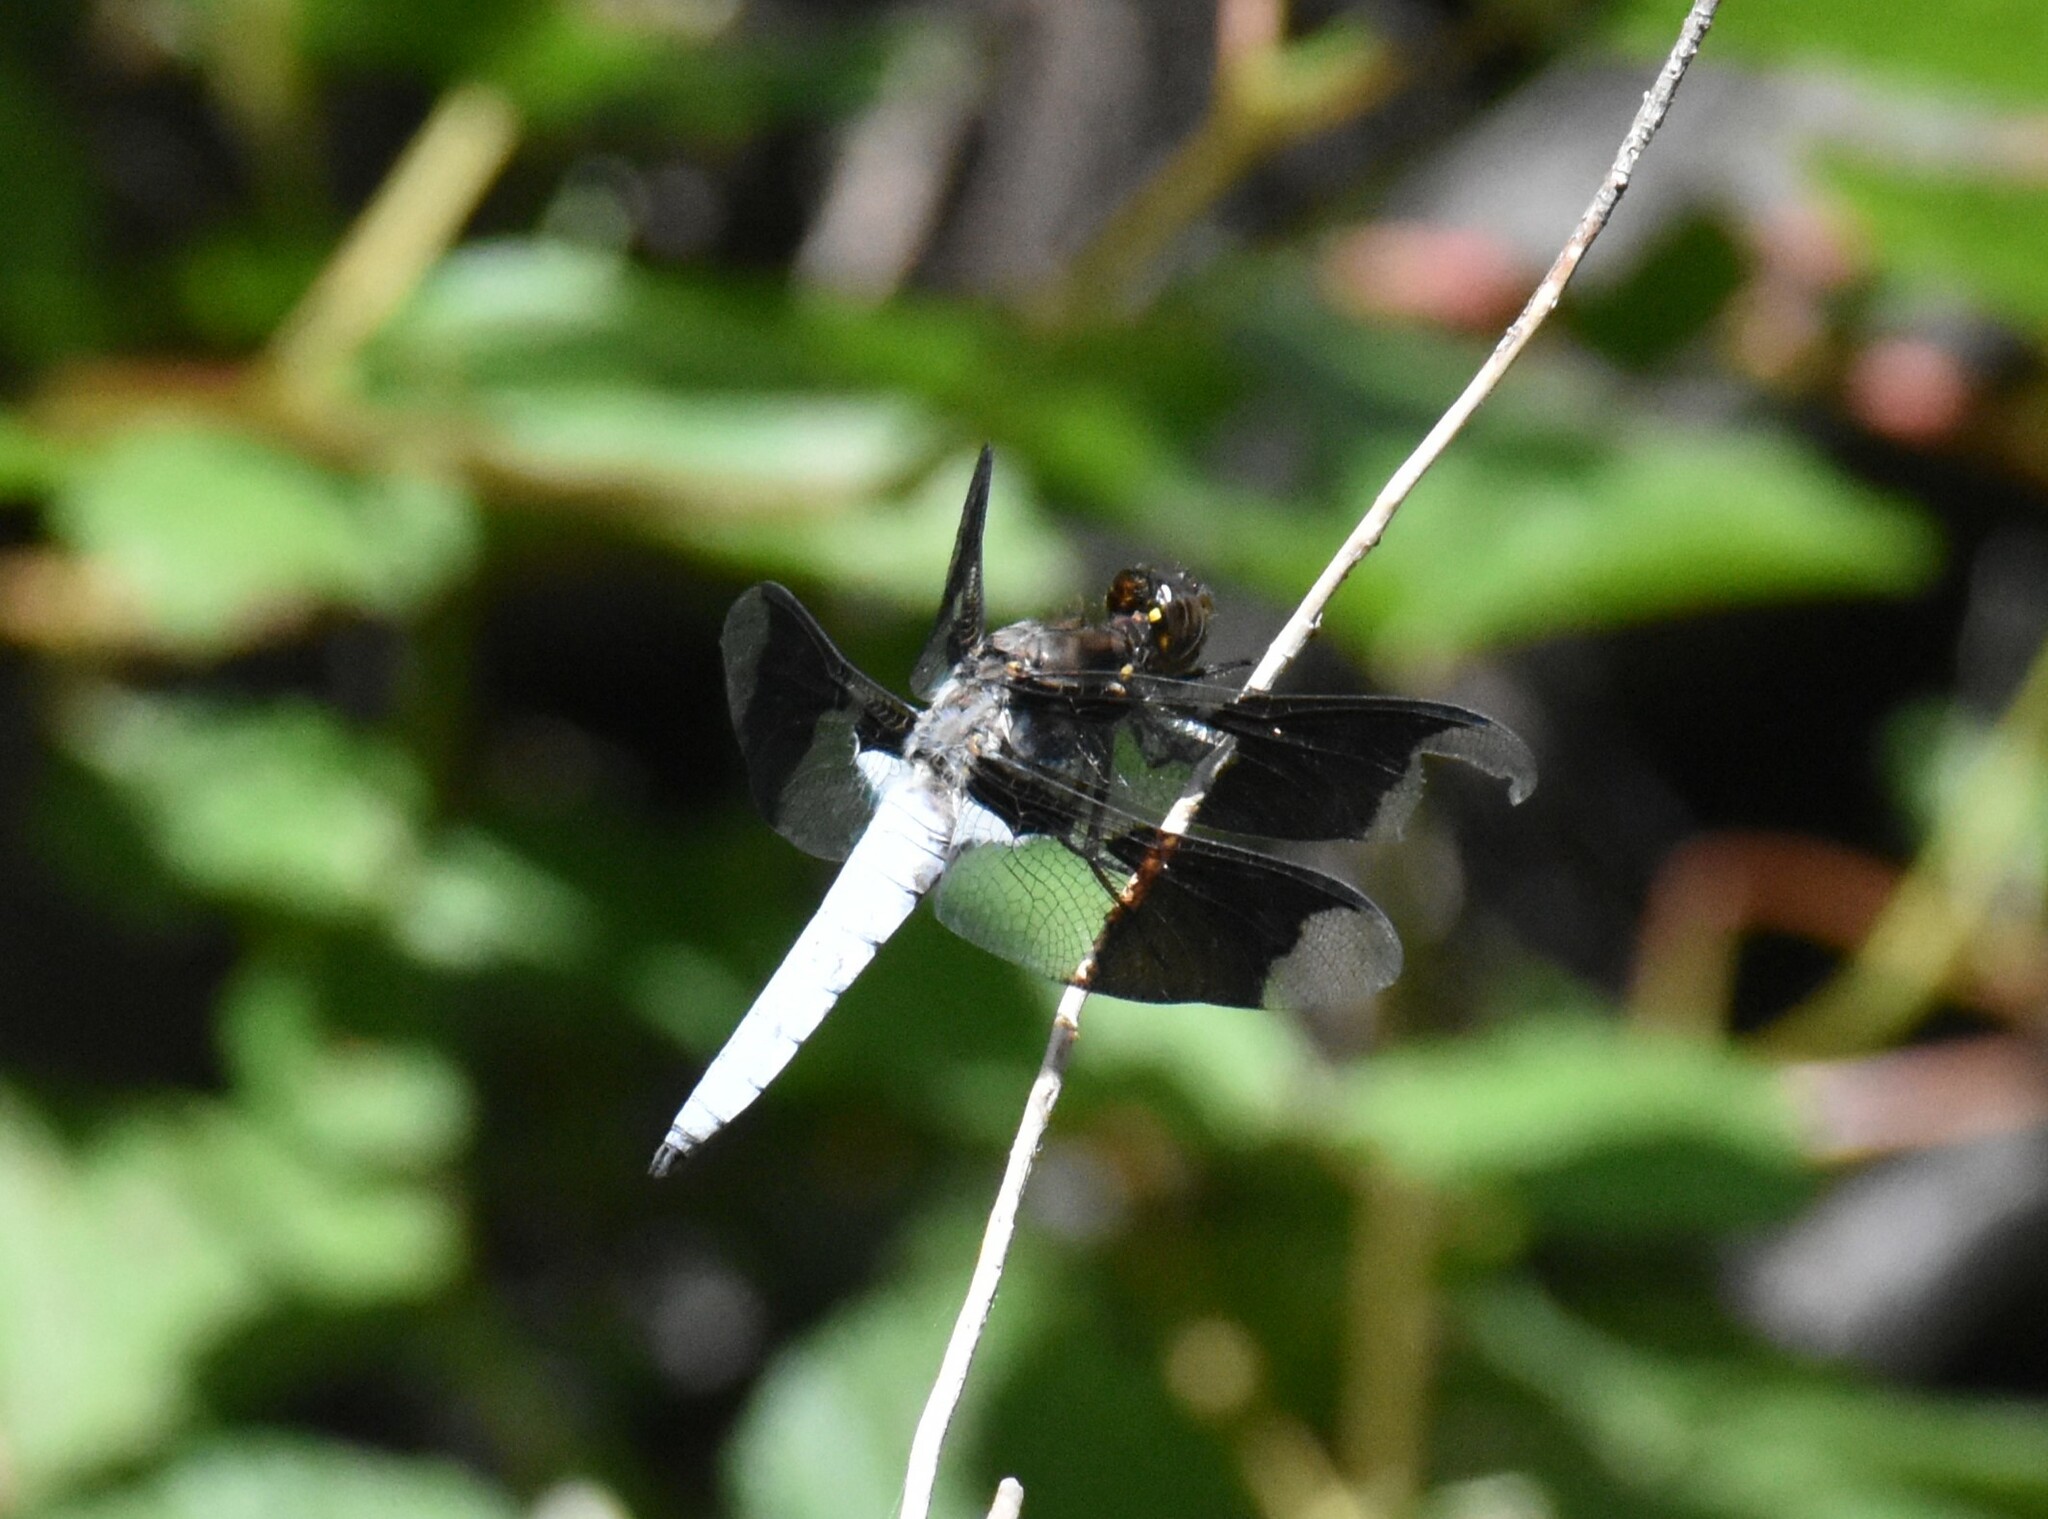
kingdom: Animalia
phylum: Arthropoda
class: Insecta
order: Odonata
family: Libellulidae
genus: Plathemis
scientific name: Plathemis lydia
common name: Common whitetail
